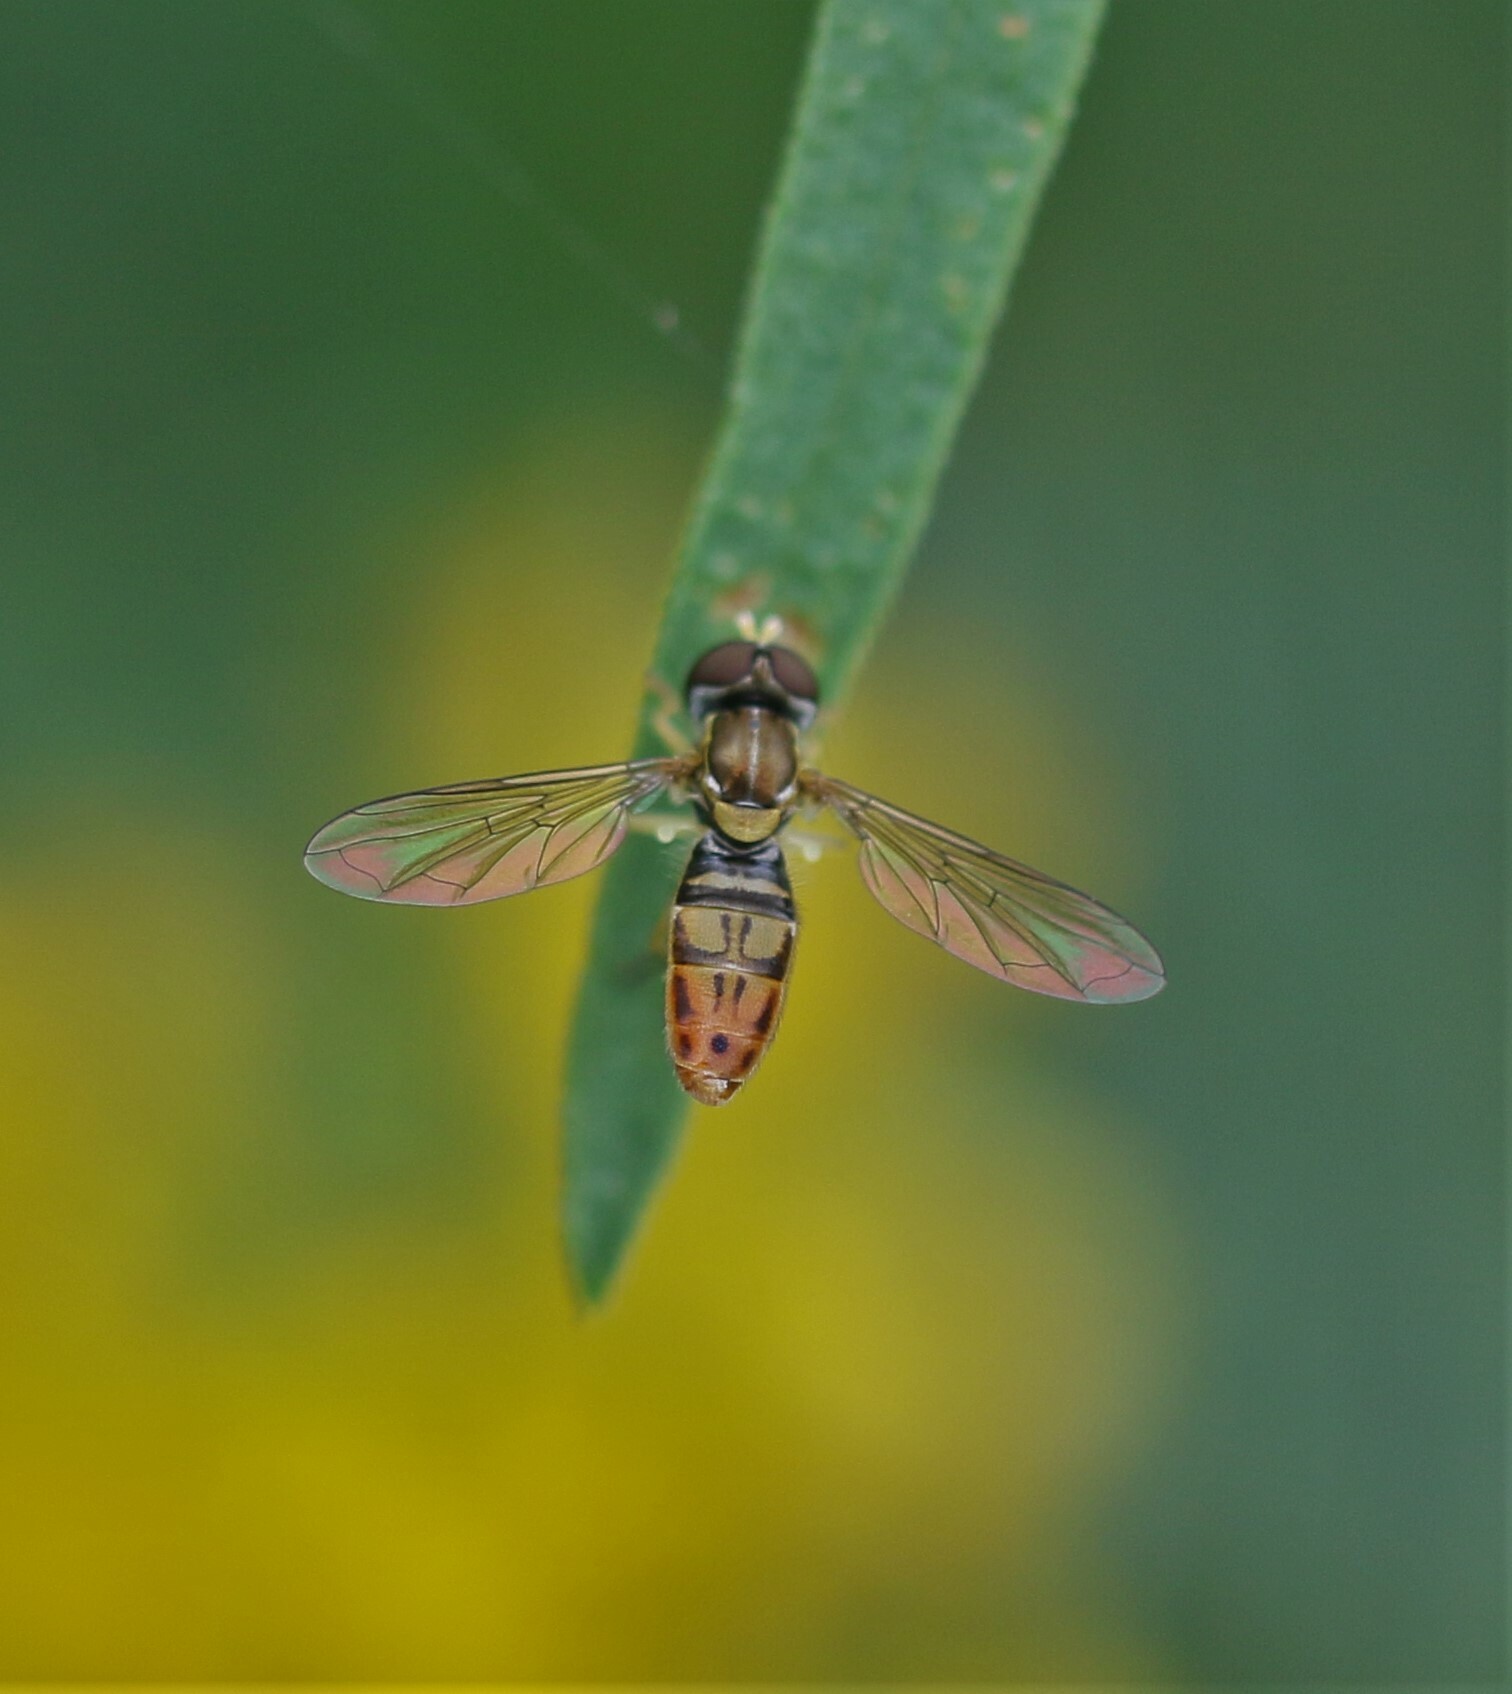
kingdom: Animalia
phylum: Arthropoda
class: Insecta
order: Diptera
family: Syrphidae
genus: Toxomerus
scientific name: Toxomerus marginatus
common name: Syrphid fly
